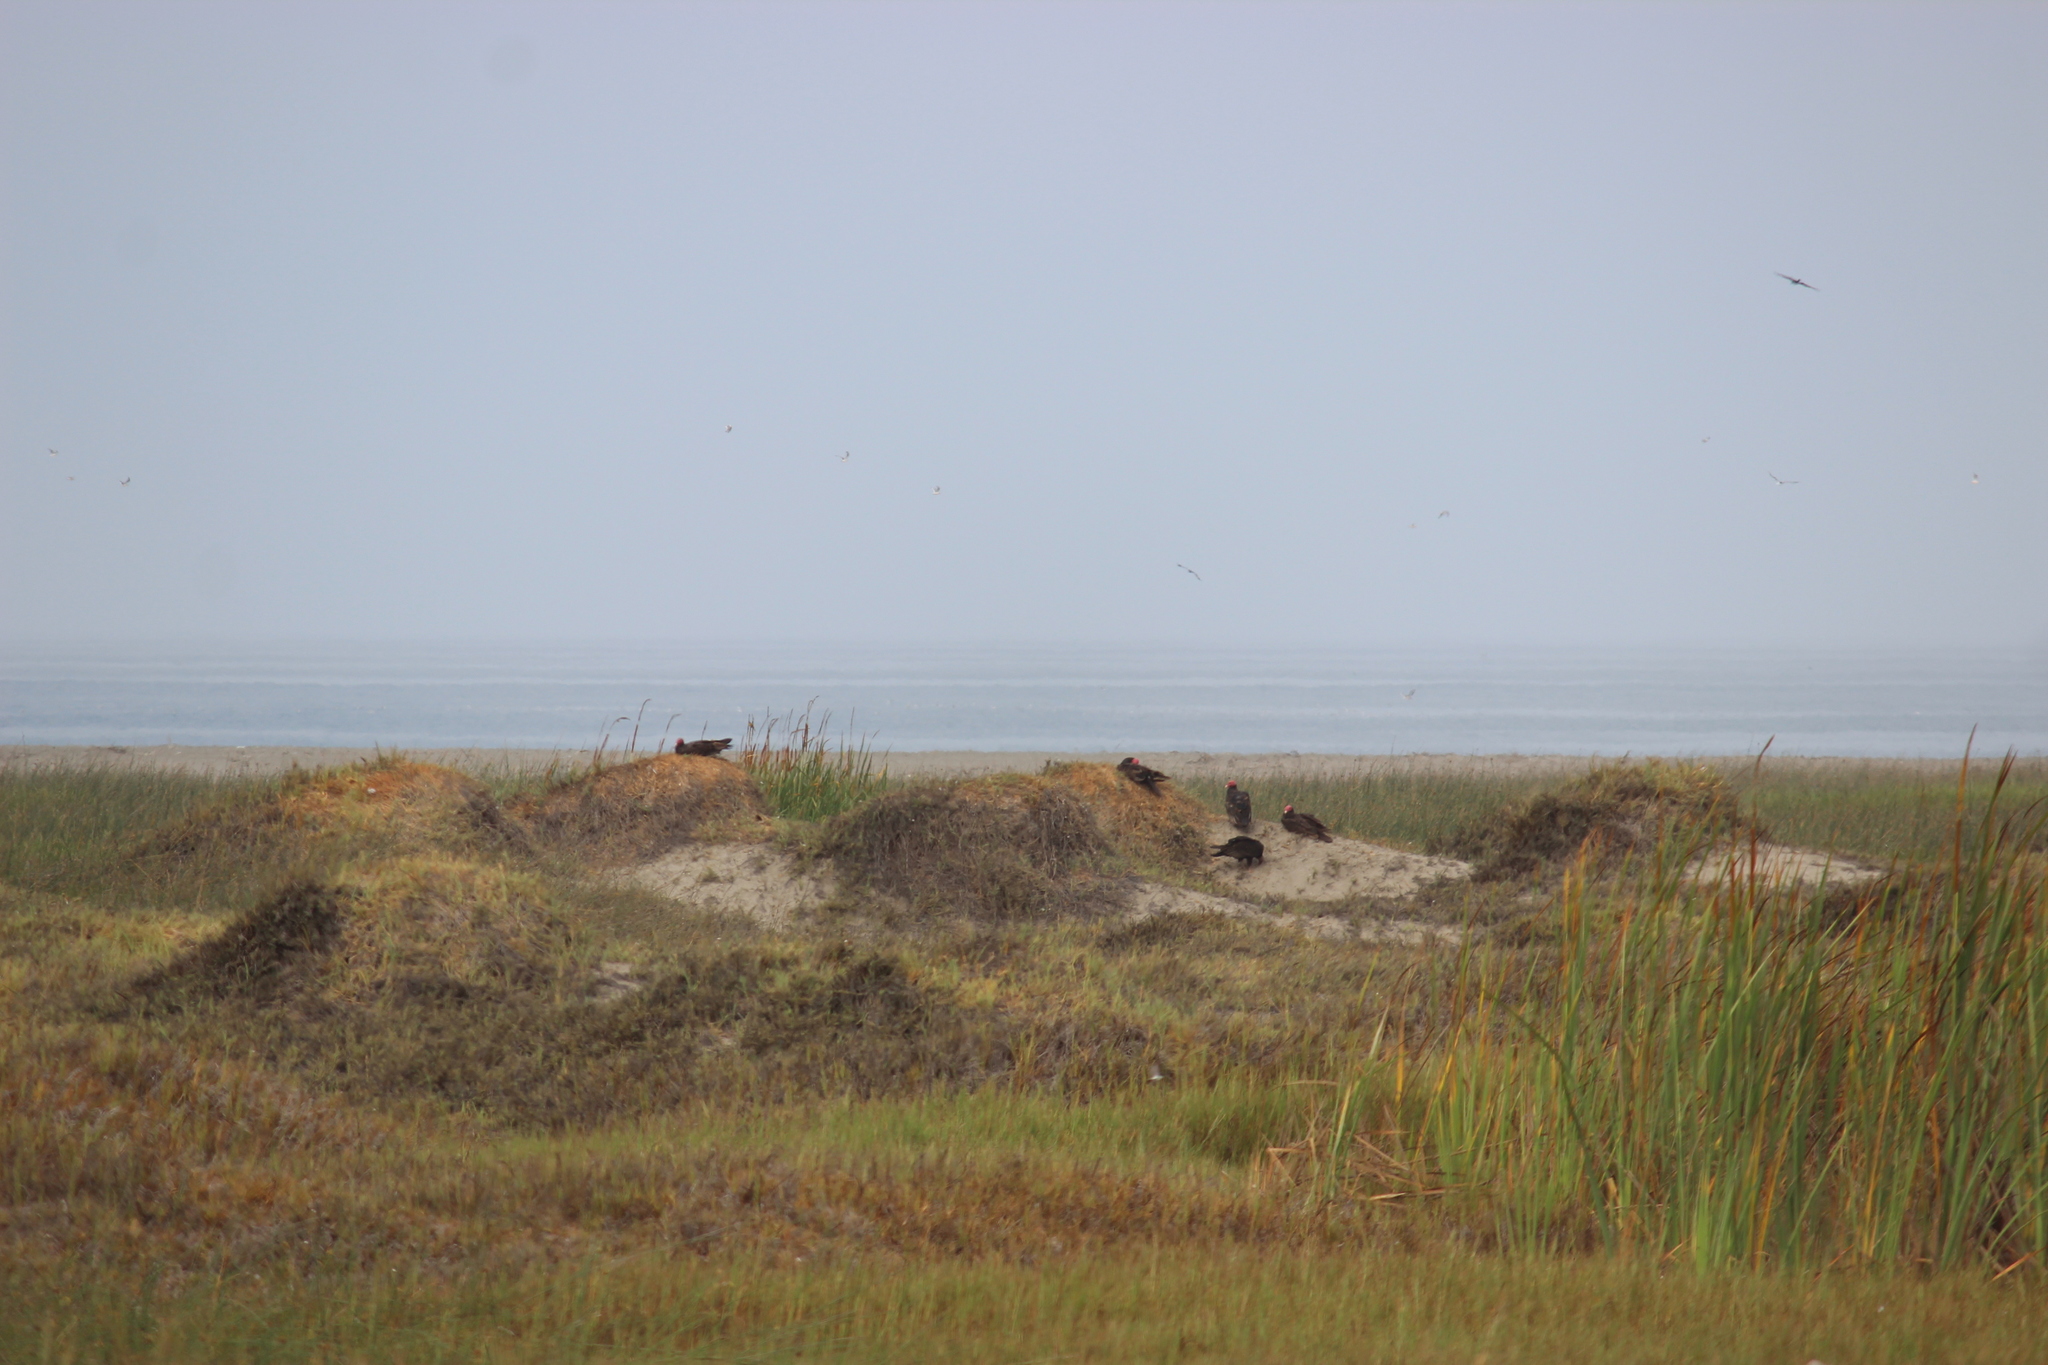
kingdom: Animalia
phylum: Chordata
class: Aves
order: Accipitriformes
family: Cathartidae
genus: Cathartes
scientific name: Cathartes aura
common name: Turkey vulture
